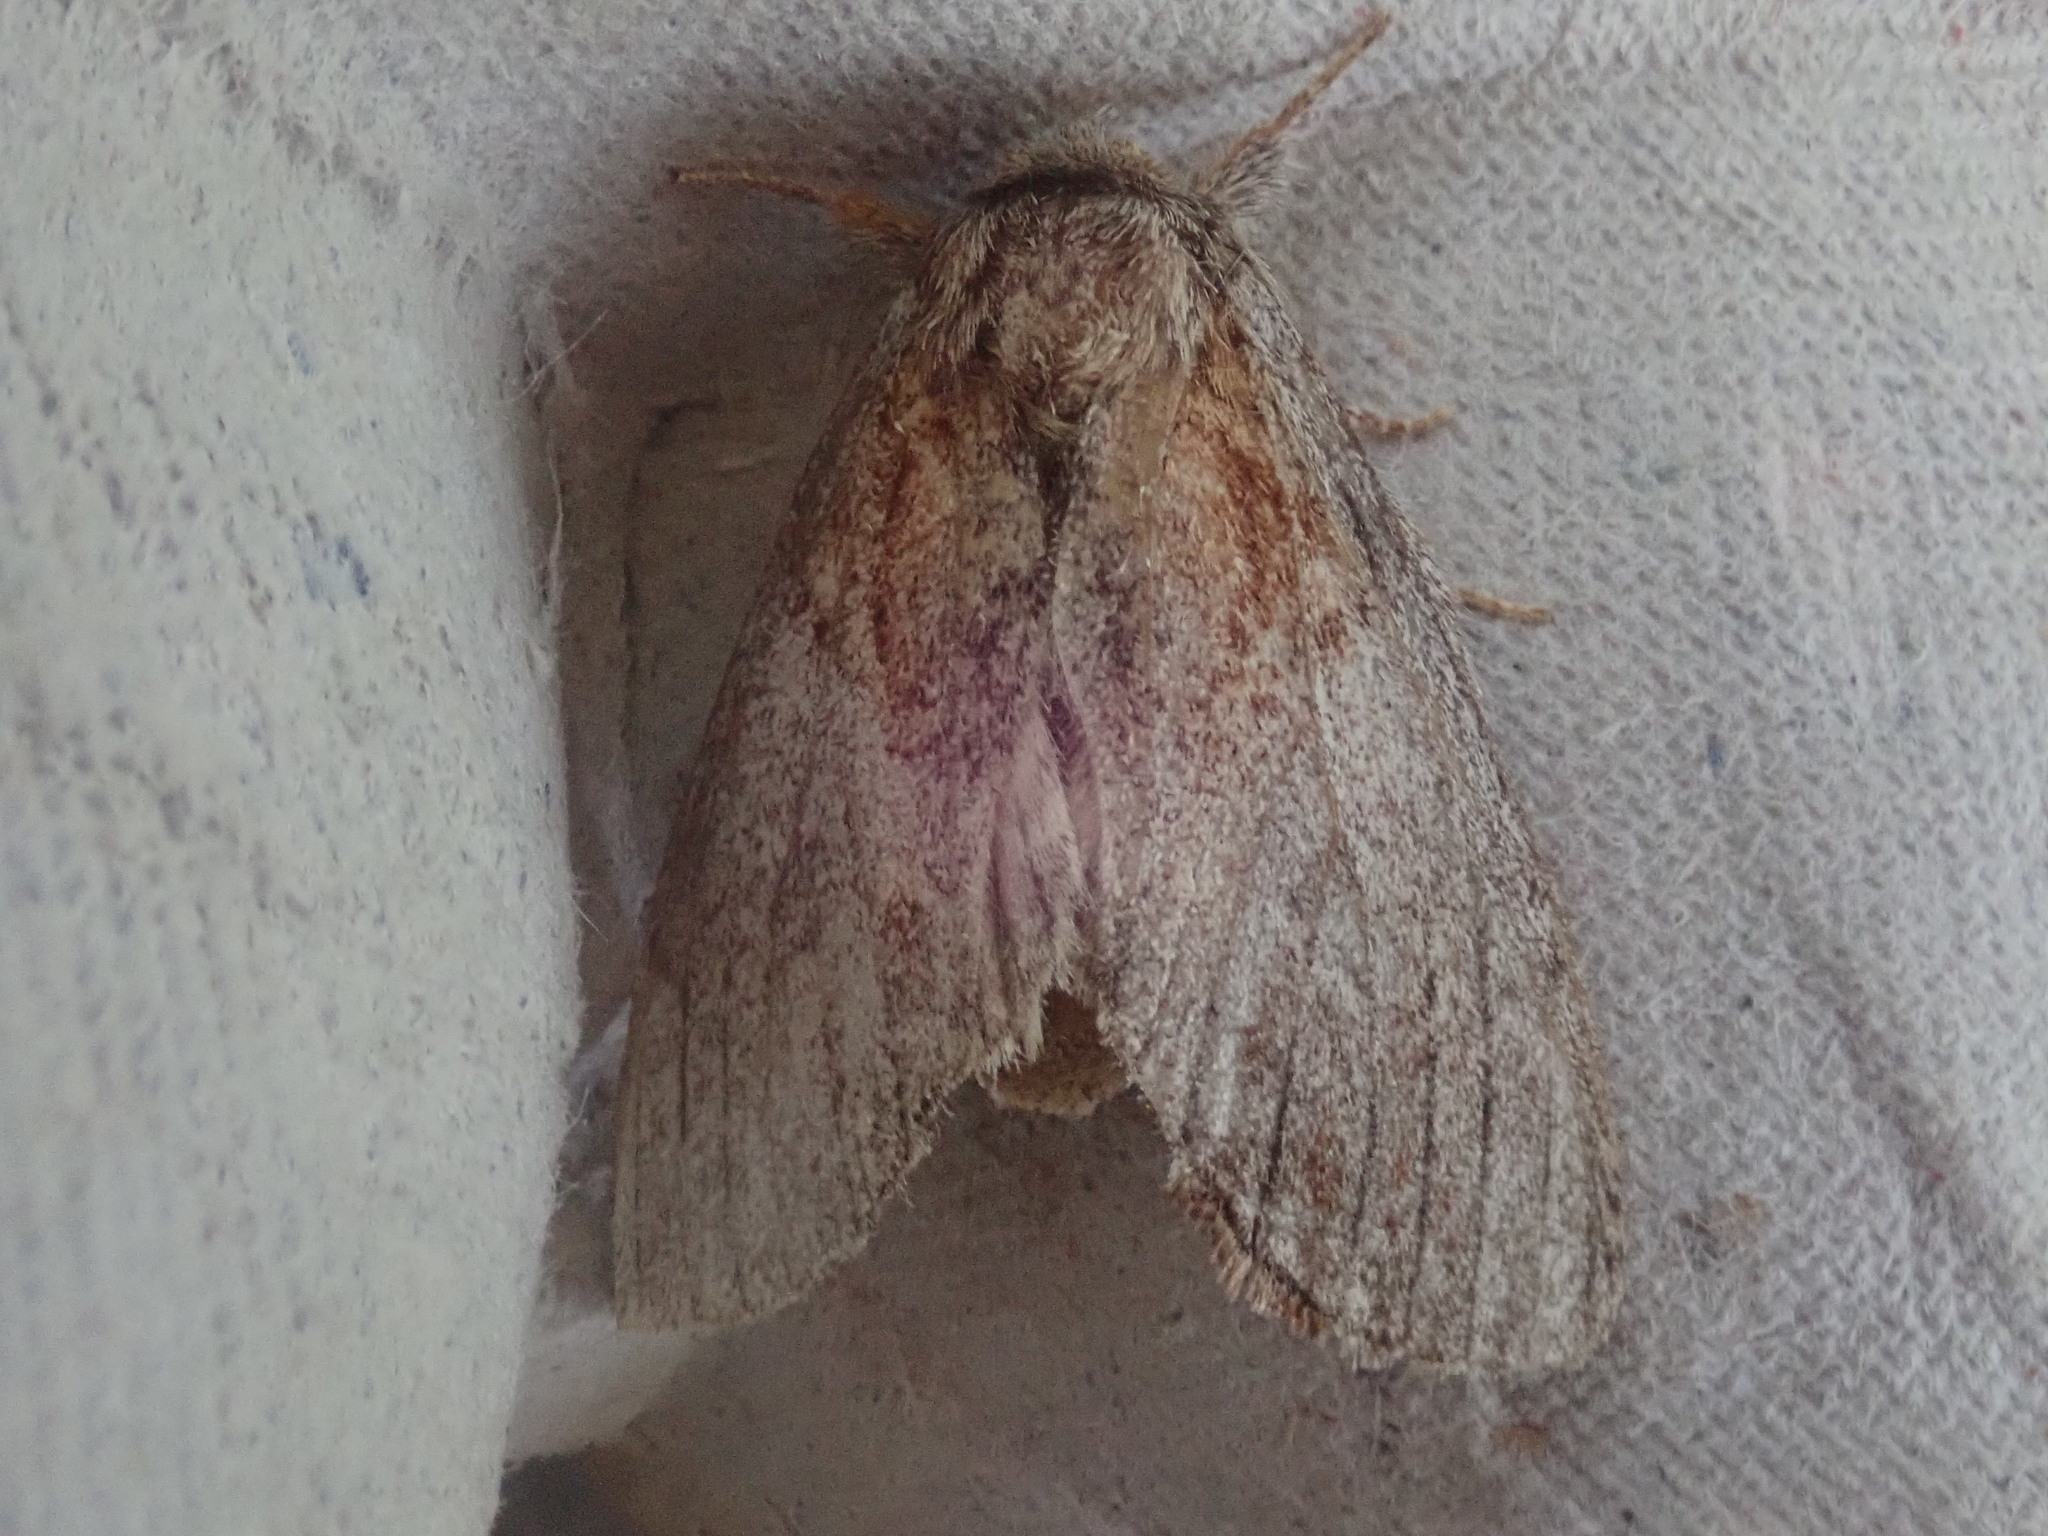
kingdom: Animalia
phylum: Arthropoda
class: Insecta
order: Lepidoptera
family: Notodontidae
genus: Peridea
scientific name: Peridea basitriens
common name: Oval-based prominent
